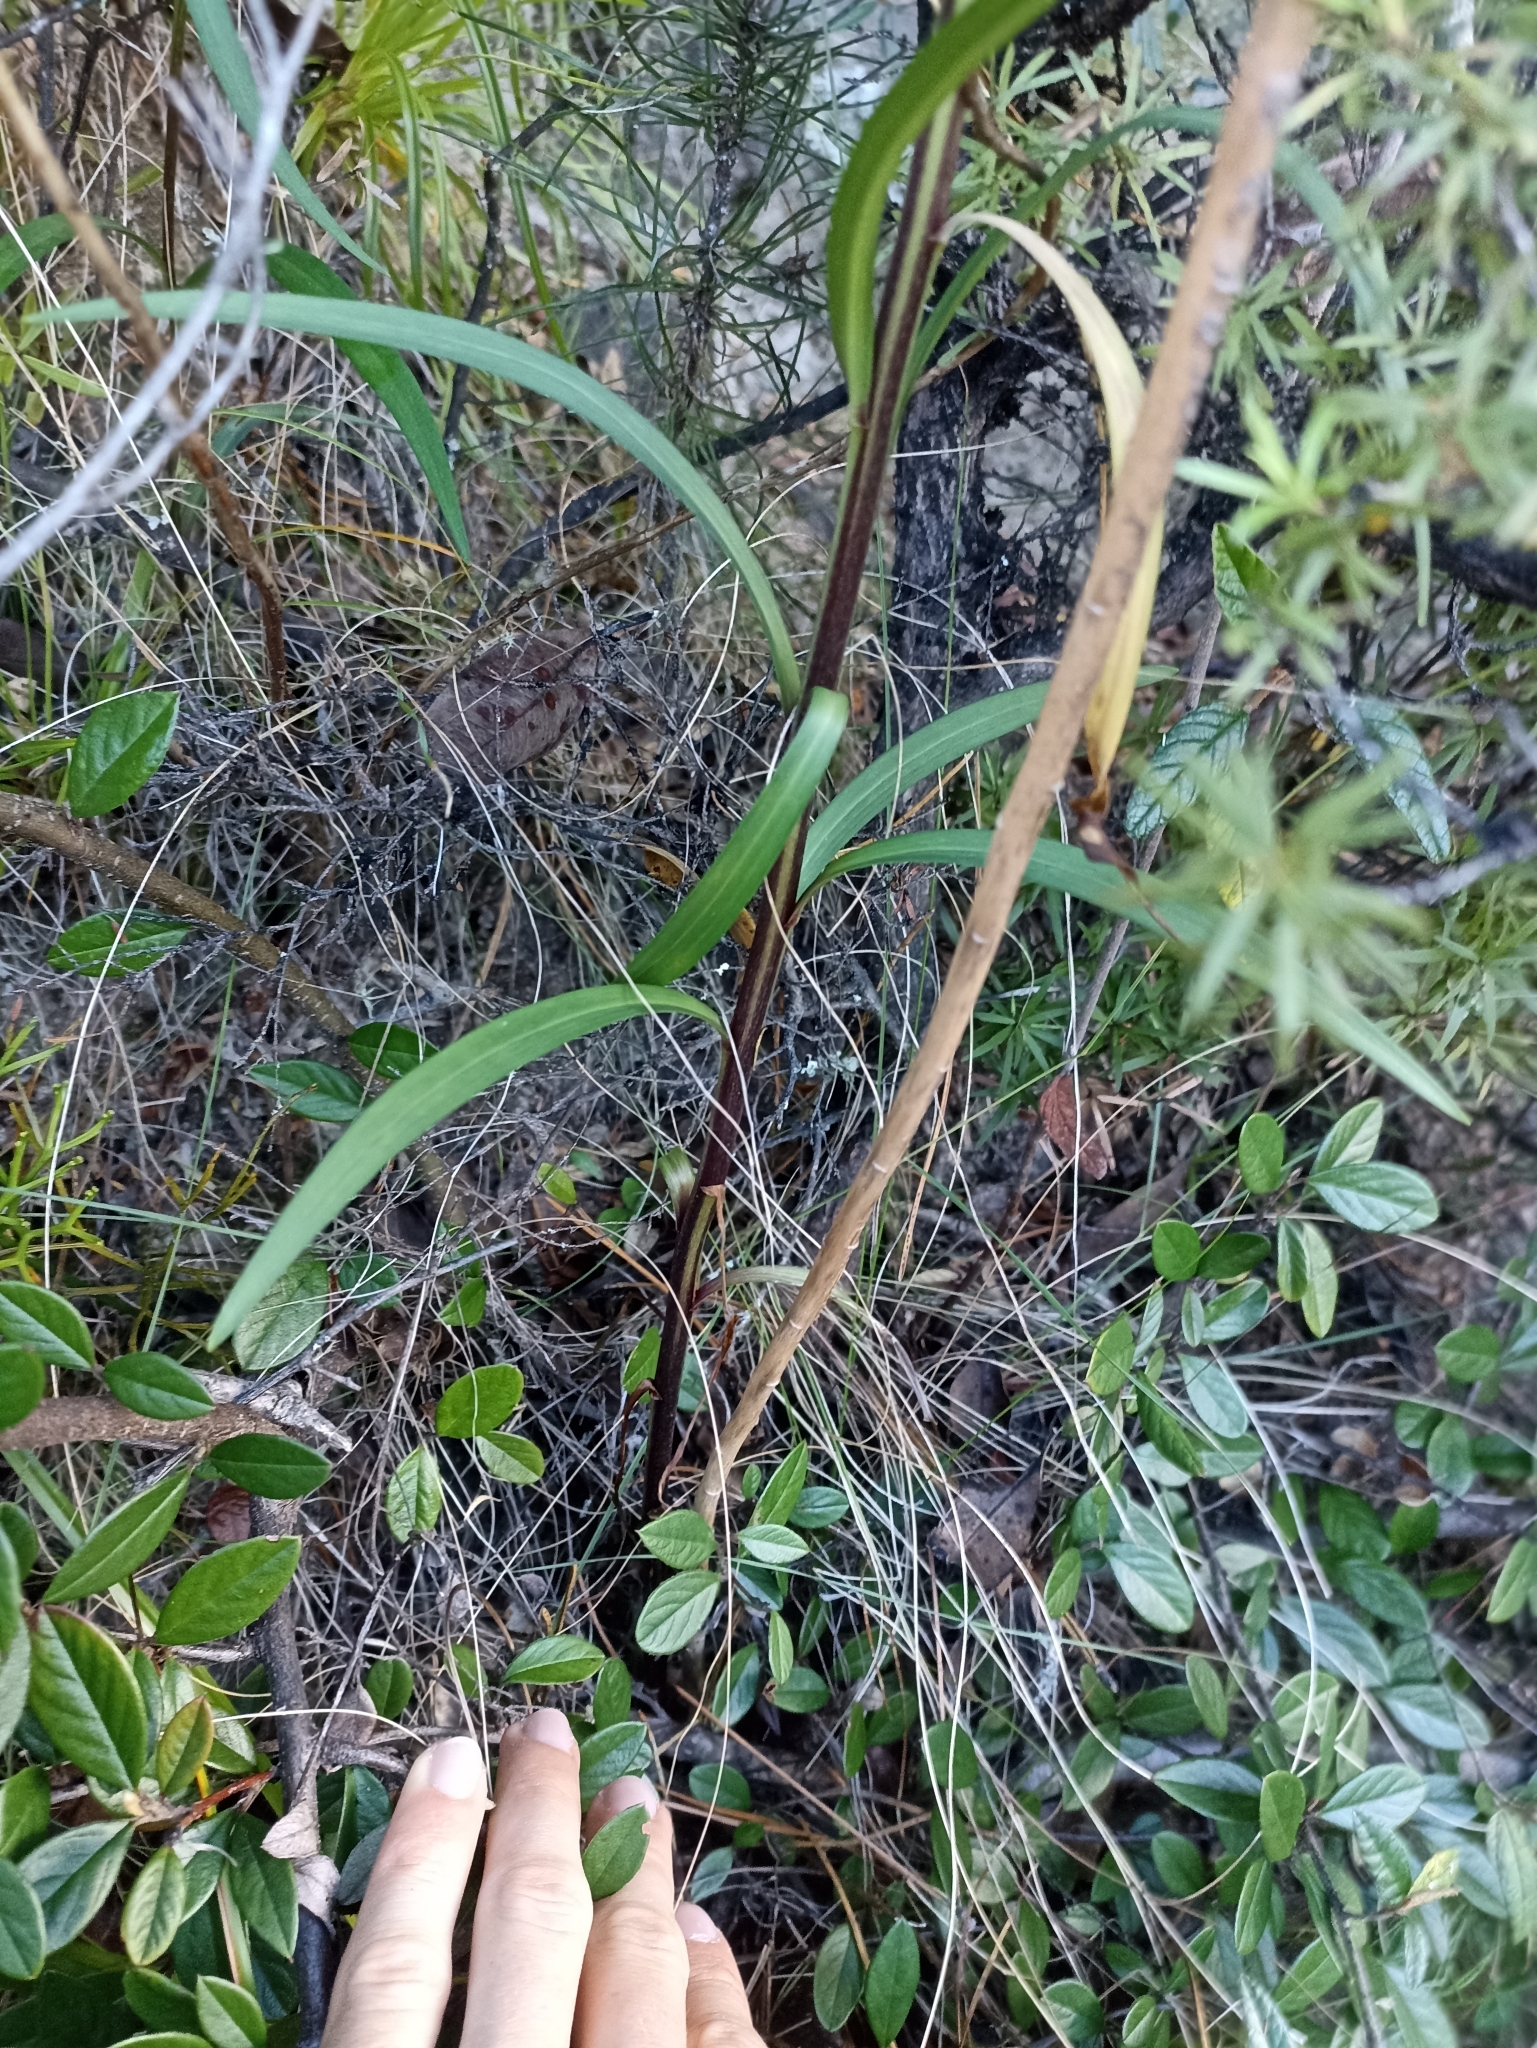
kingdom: Plantae
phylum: Tracheophyta
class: Liliopsida
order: Liliales
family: Liliaceae
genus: Lilium
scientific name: Lilium formosanum
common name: Formosa lily
